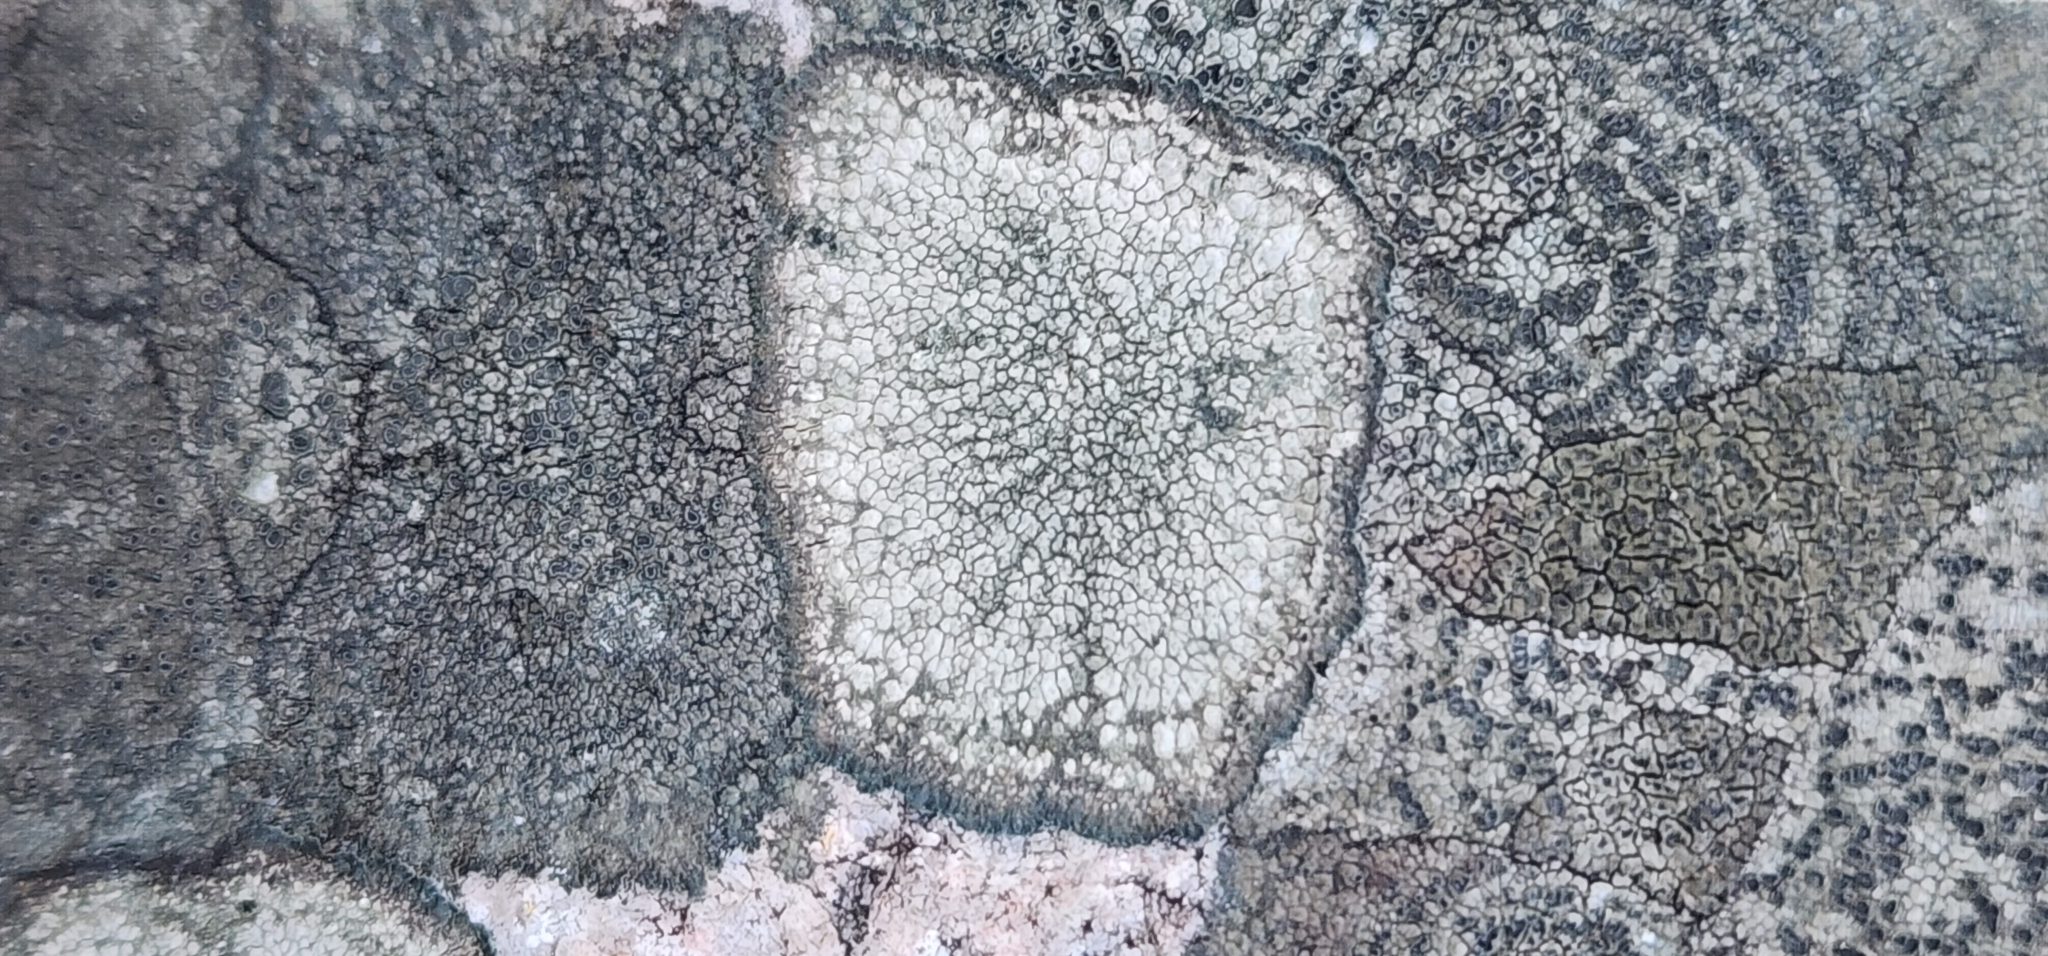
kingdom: Fungi
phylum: Ascomycota
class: Lecanoromycetes
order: Pertusariales
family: Megasporaceae
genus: Aspicilia
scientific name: Aspicilia cinerea
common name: Cinder lichen
